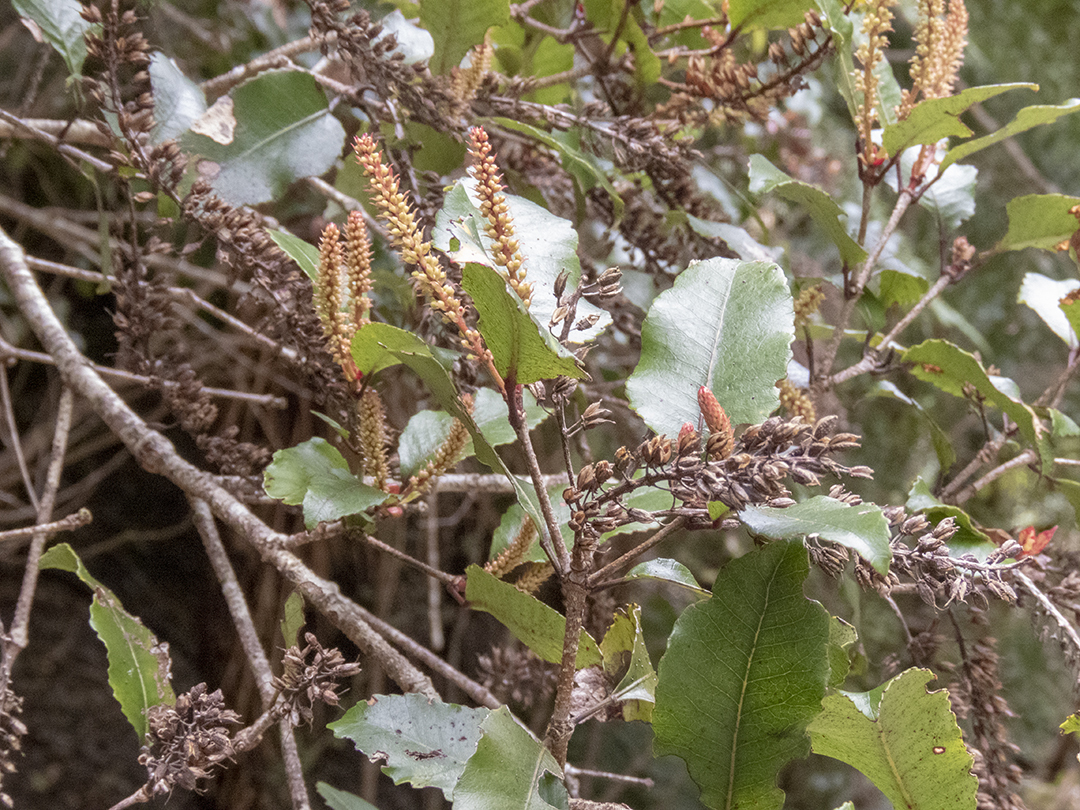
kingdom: Plantae
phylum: Tracheophyta
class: Magnoliopsida
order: Oxalidales
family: Cunoniaceae
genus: Pterophylla
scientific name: Pterophylla racemosa
